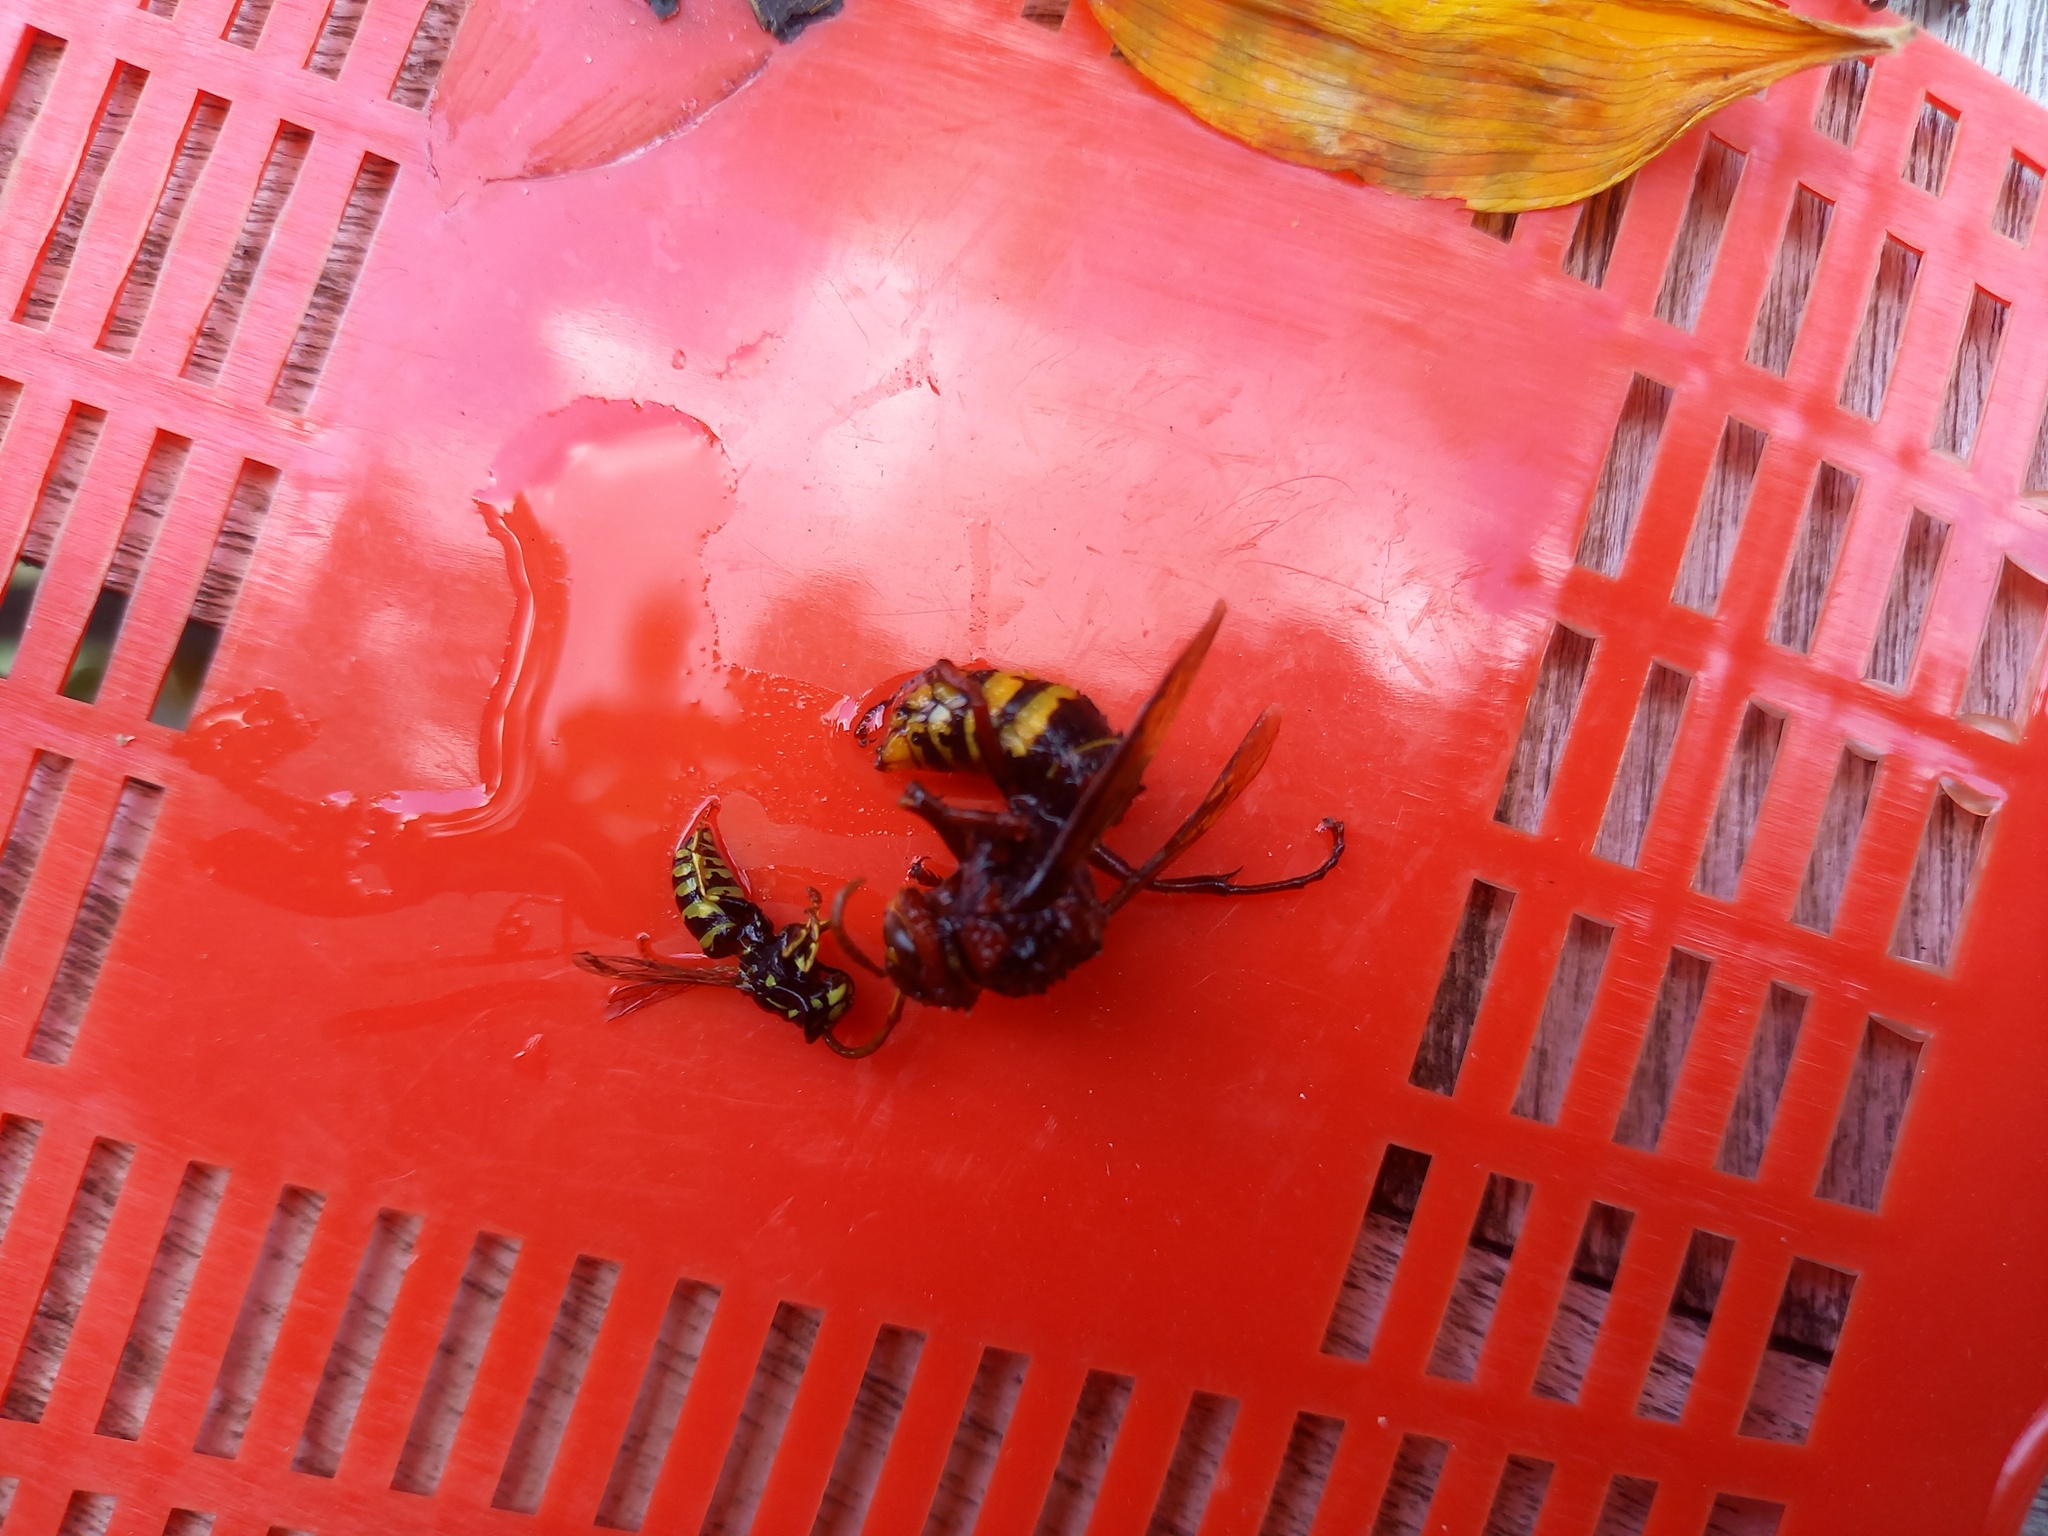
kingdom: Animalia
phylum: Arthropoda
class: Insecta
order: Hymenoptera
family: Vespidae
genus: Vespa
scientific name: Vespa crabro
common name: Hornet
